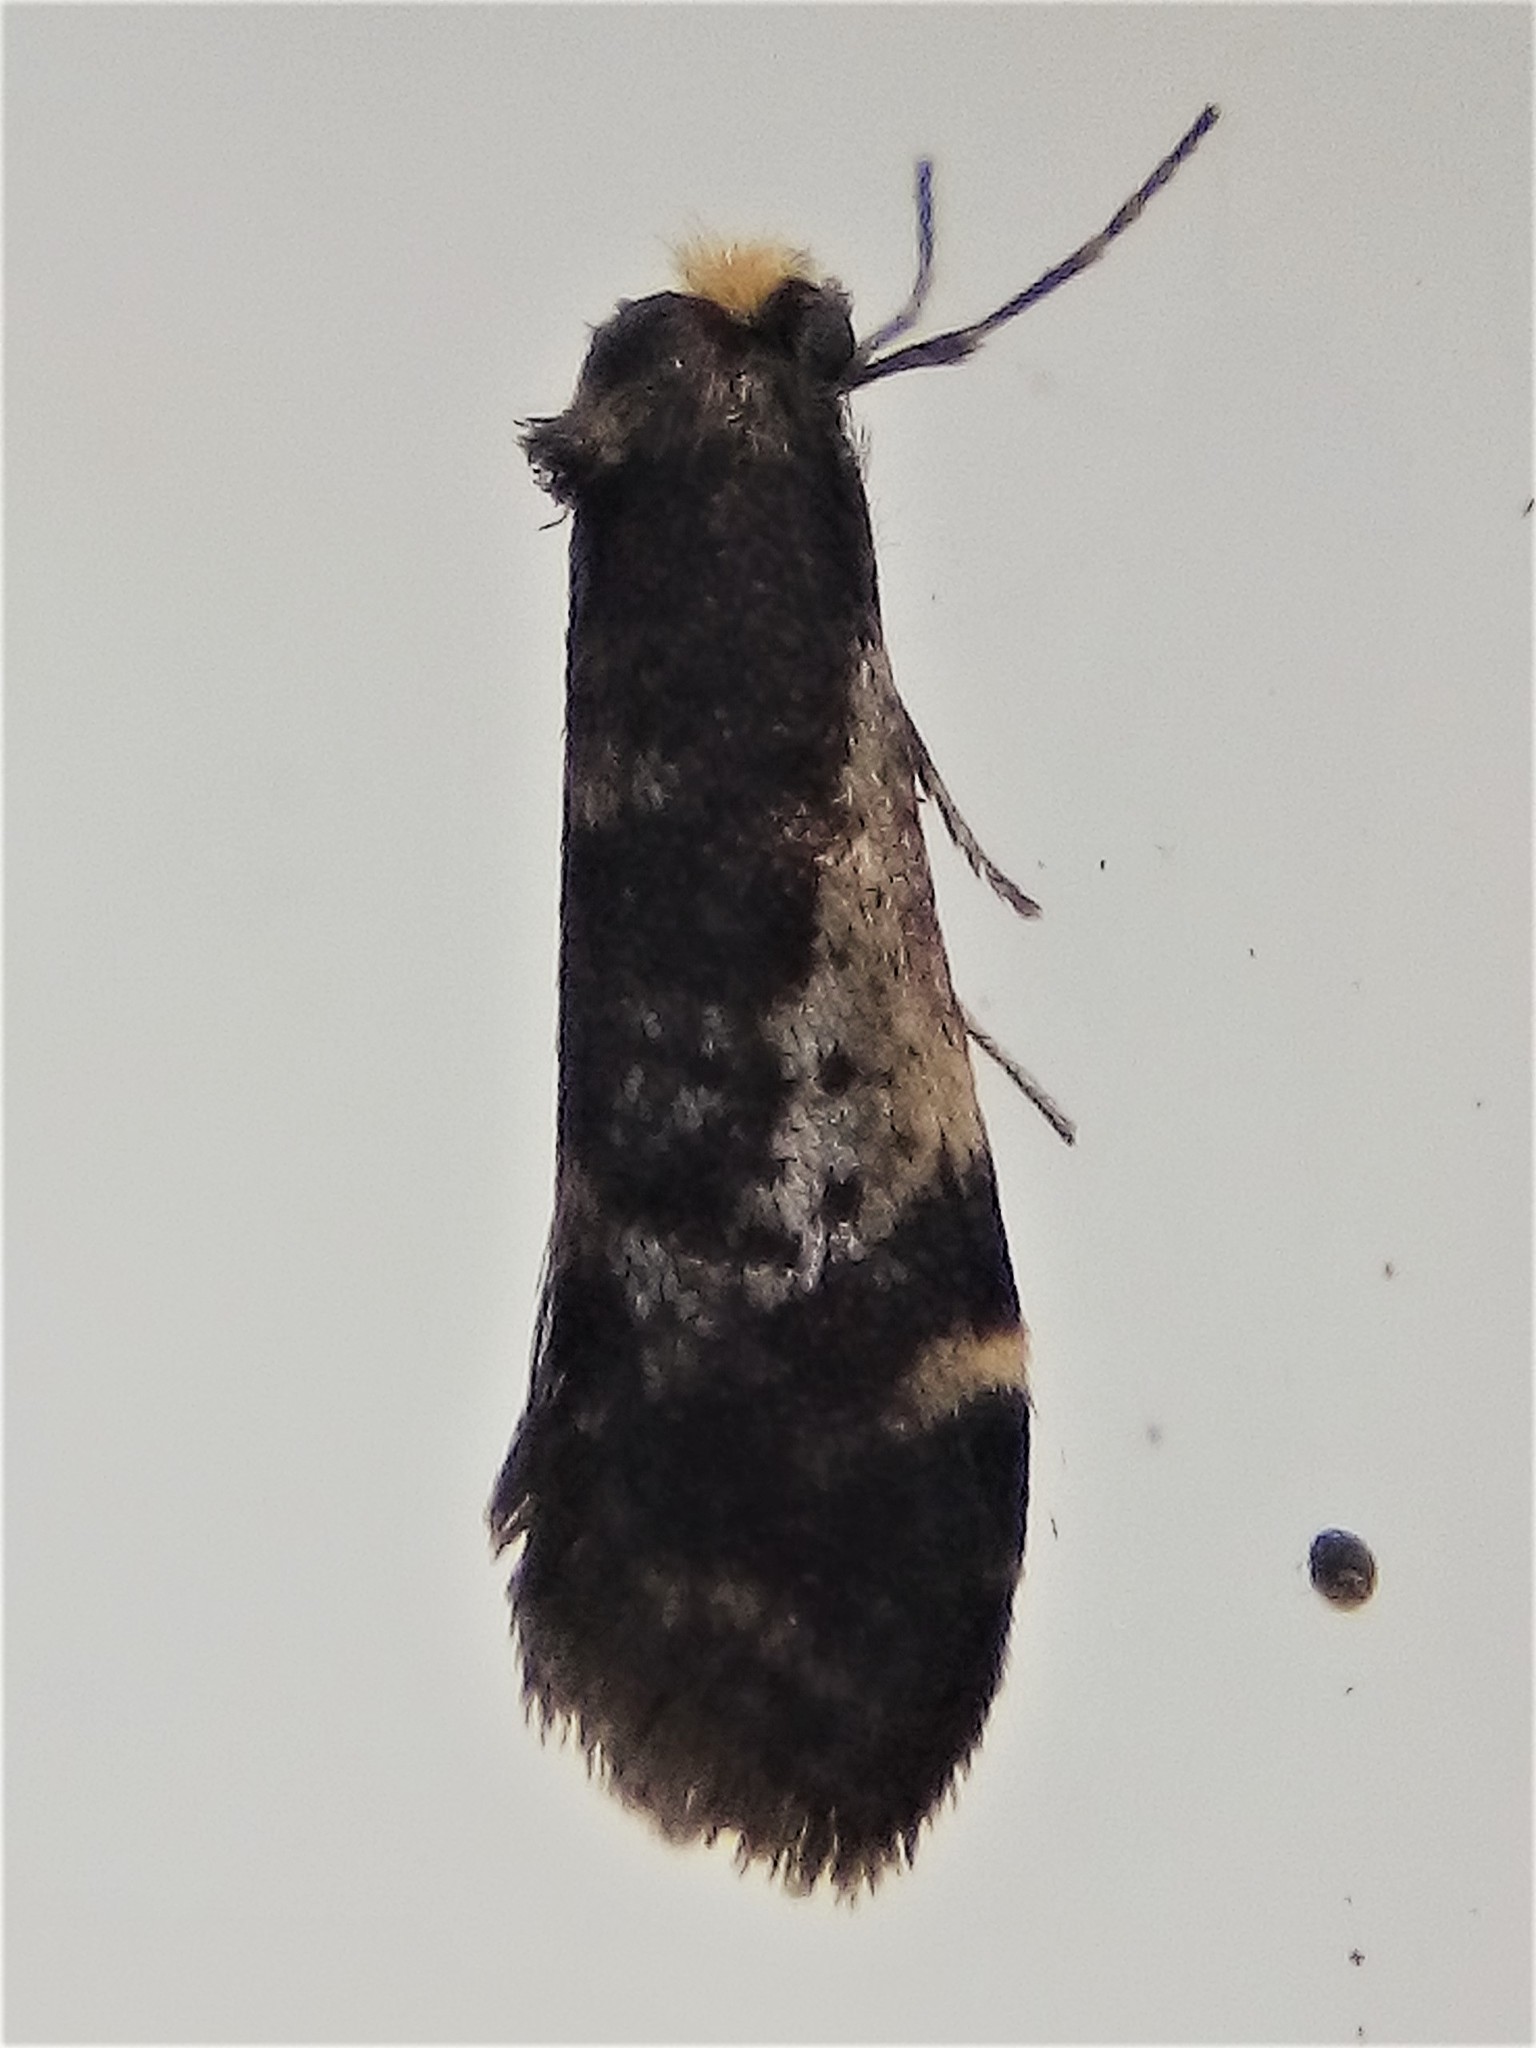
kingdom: Animalia
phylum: Arthropoda
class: Insecta
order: Lepidoptera
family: Psychidae
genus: Lepidoscia
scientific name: Lepidoscia lainodes
